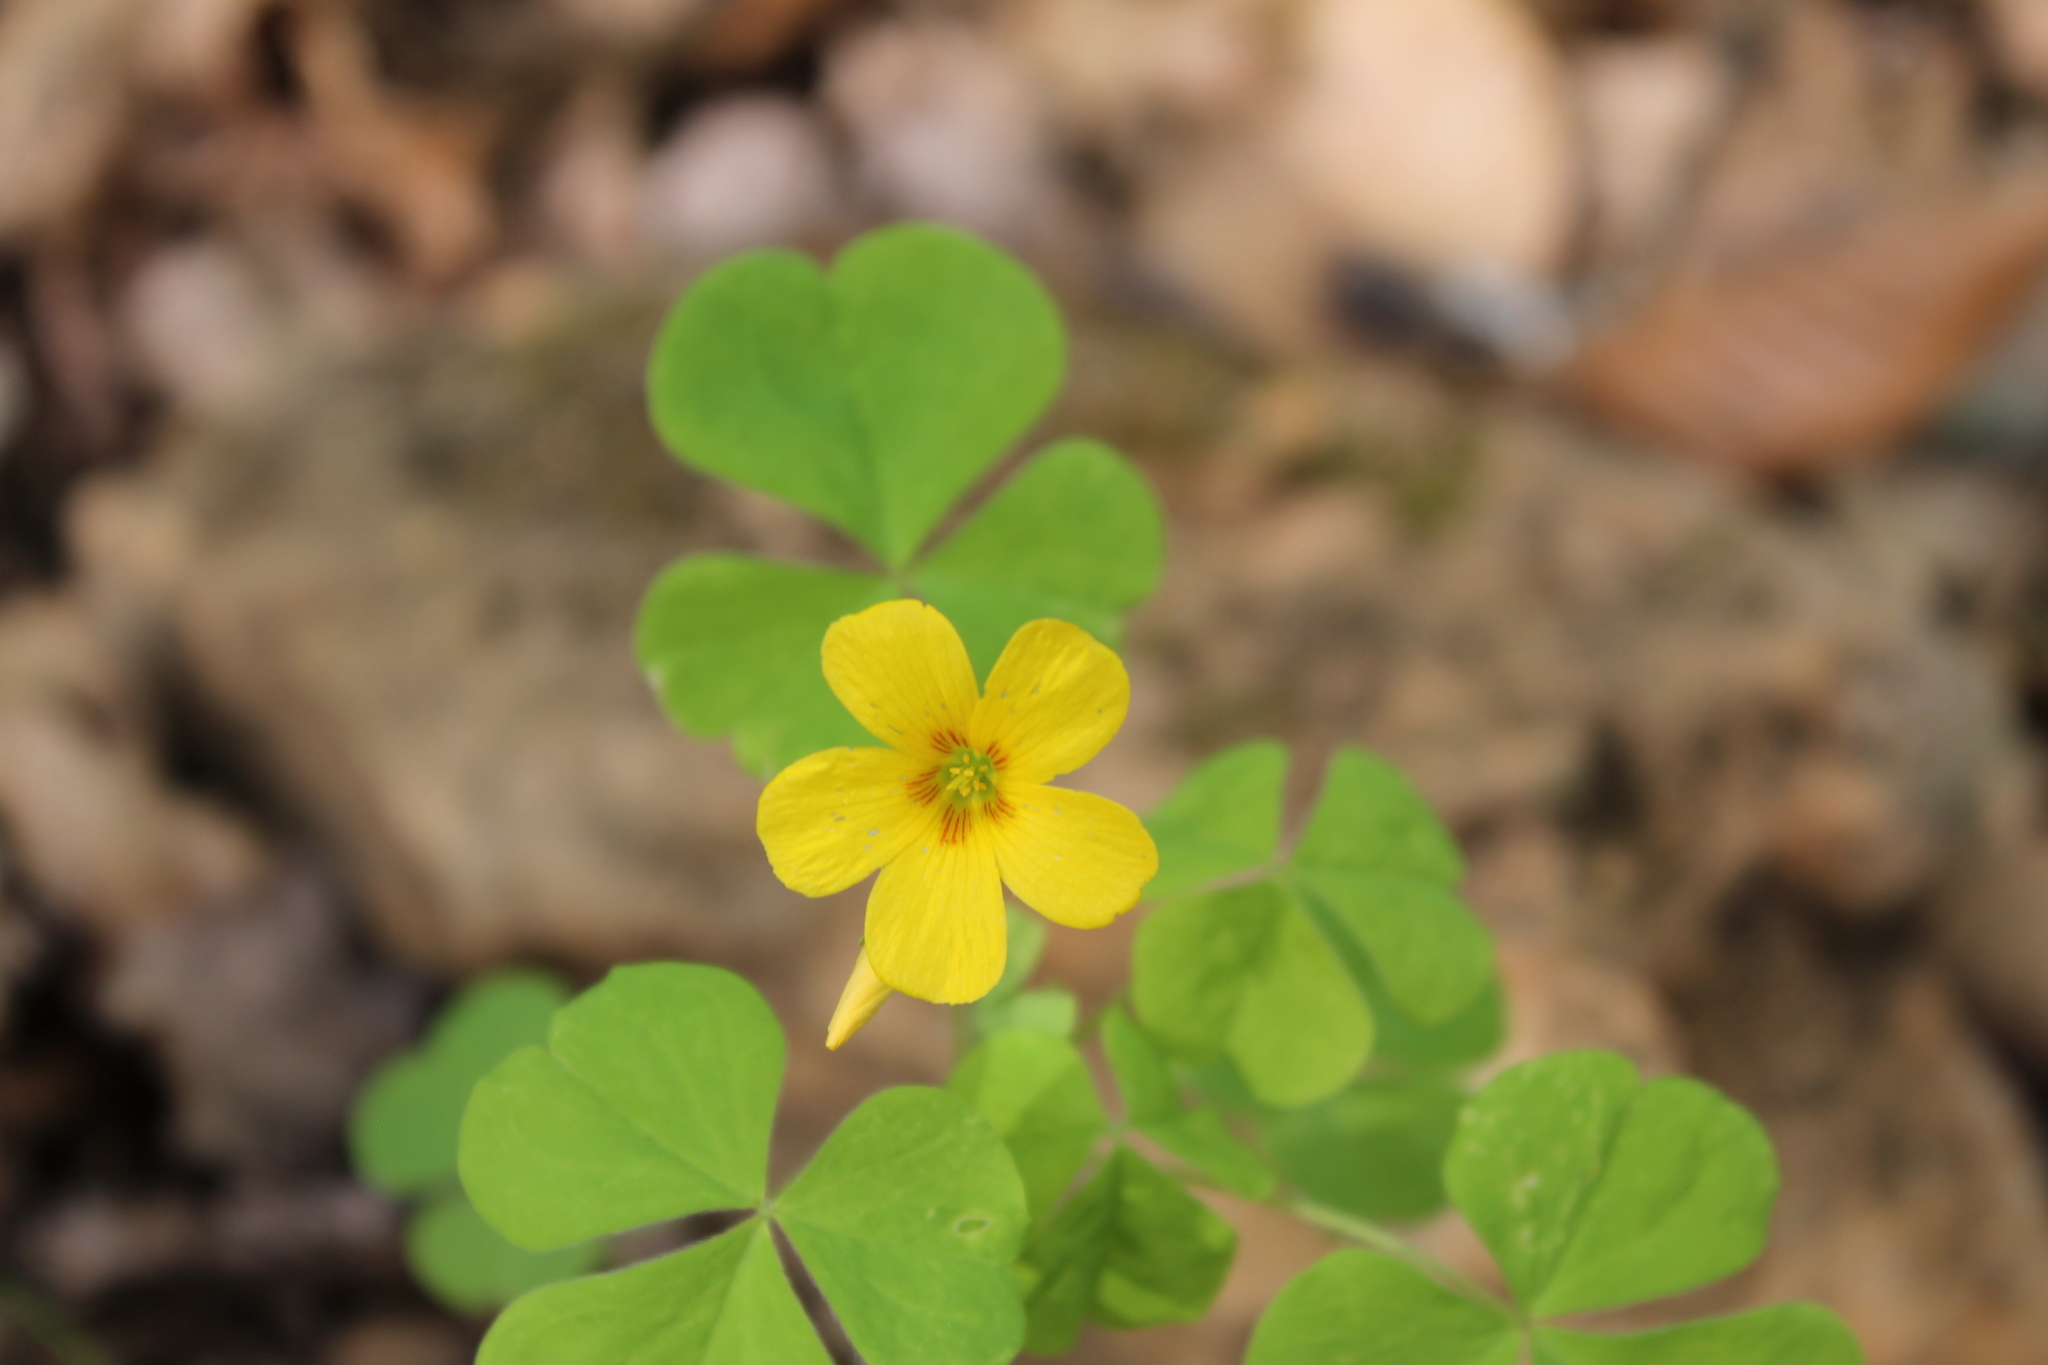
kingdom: Plantae
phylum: Tracheophyta
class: Magnoliopsida
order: Oxalidales
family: Oxalidaceae
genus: Oxalis
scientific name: Oxalis dillenii
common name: Sussex yellow-sorrel
